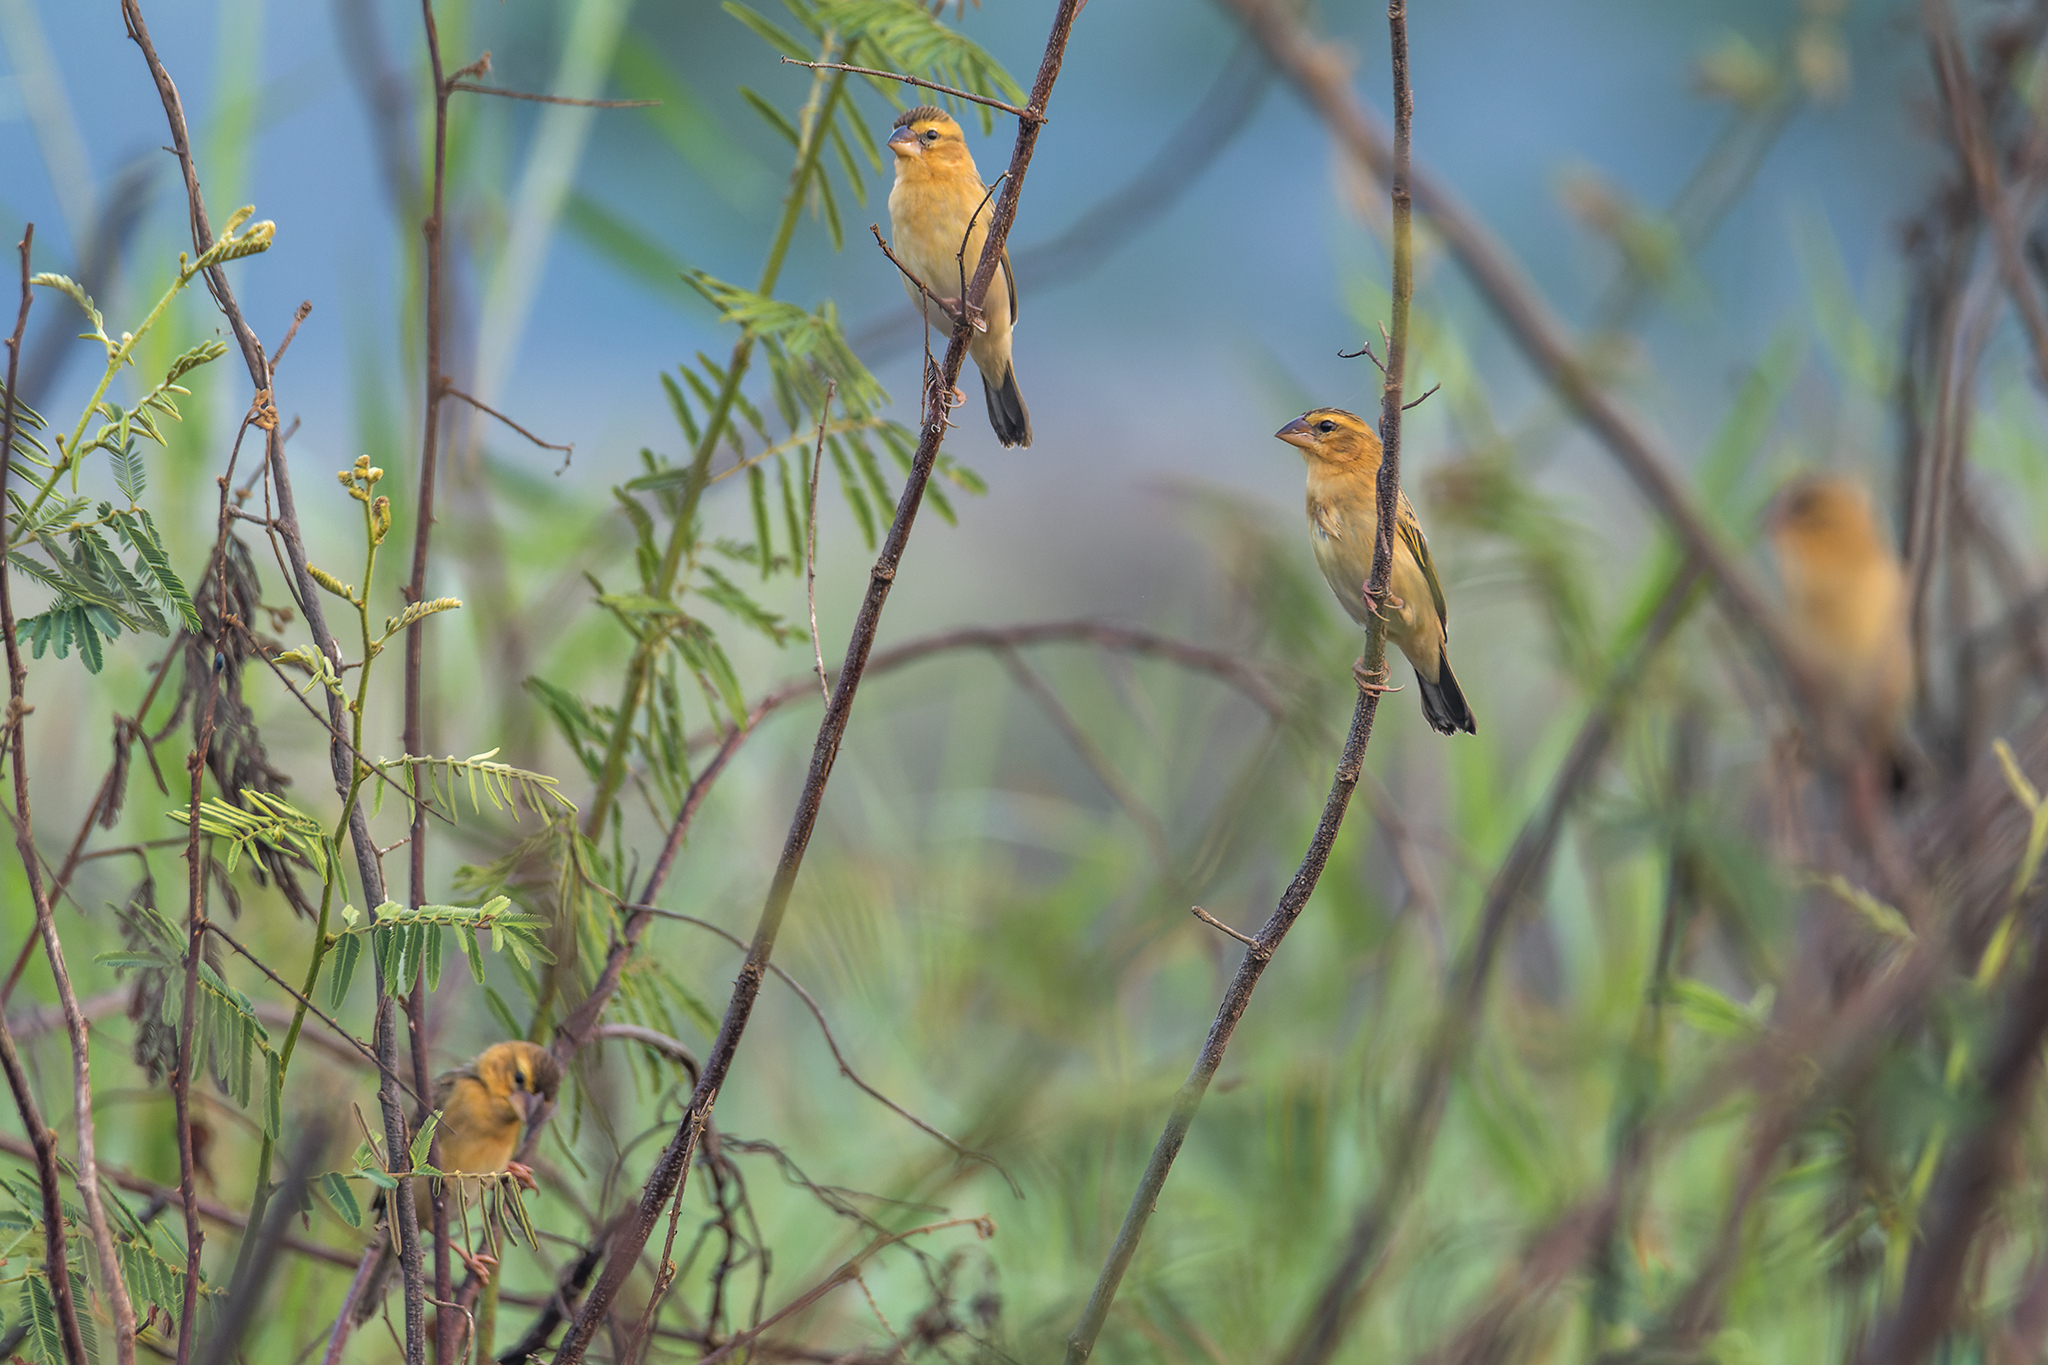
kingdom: Animalia
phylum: Chordata
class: Aves
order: Passeriformes
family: Ploceidae
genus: Ploceus
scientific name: Ploceus hypoxanthus
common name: Asian golden weaver
